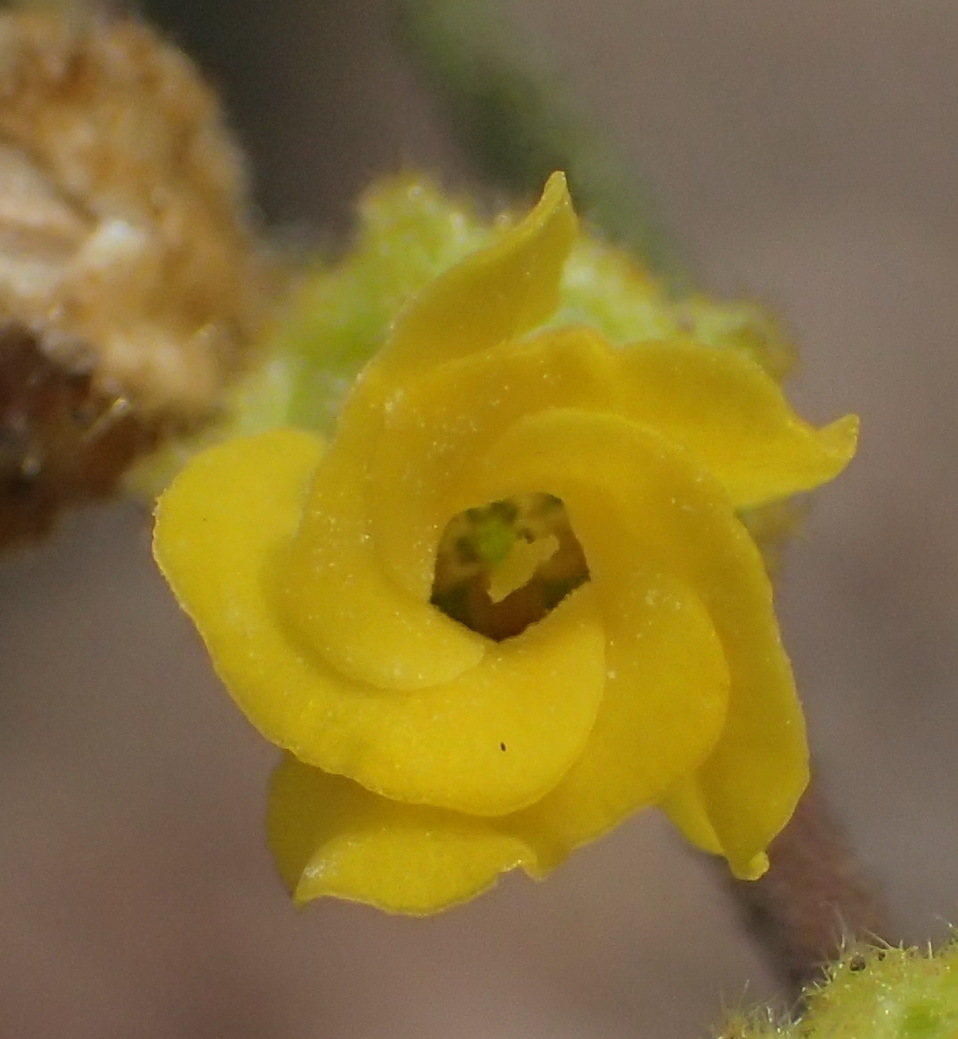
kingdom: Plantae
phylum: Tracheophyta
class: Magnoliopsida
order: Malvales
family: Malvaceae
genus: Hermannia
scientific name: Hermannia decipiens
